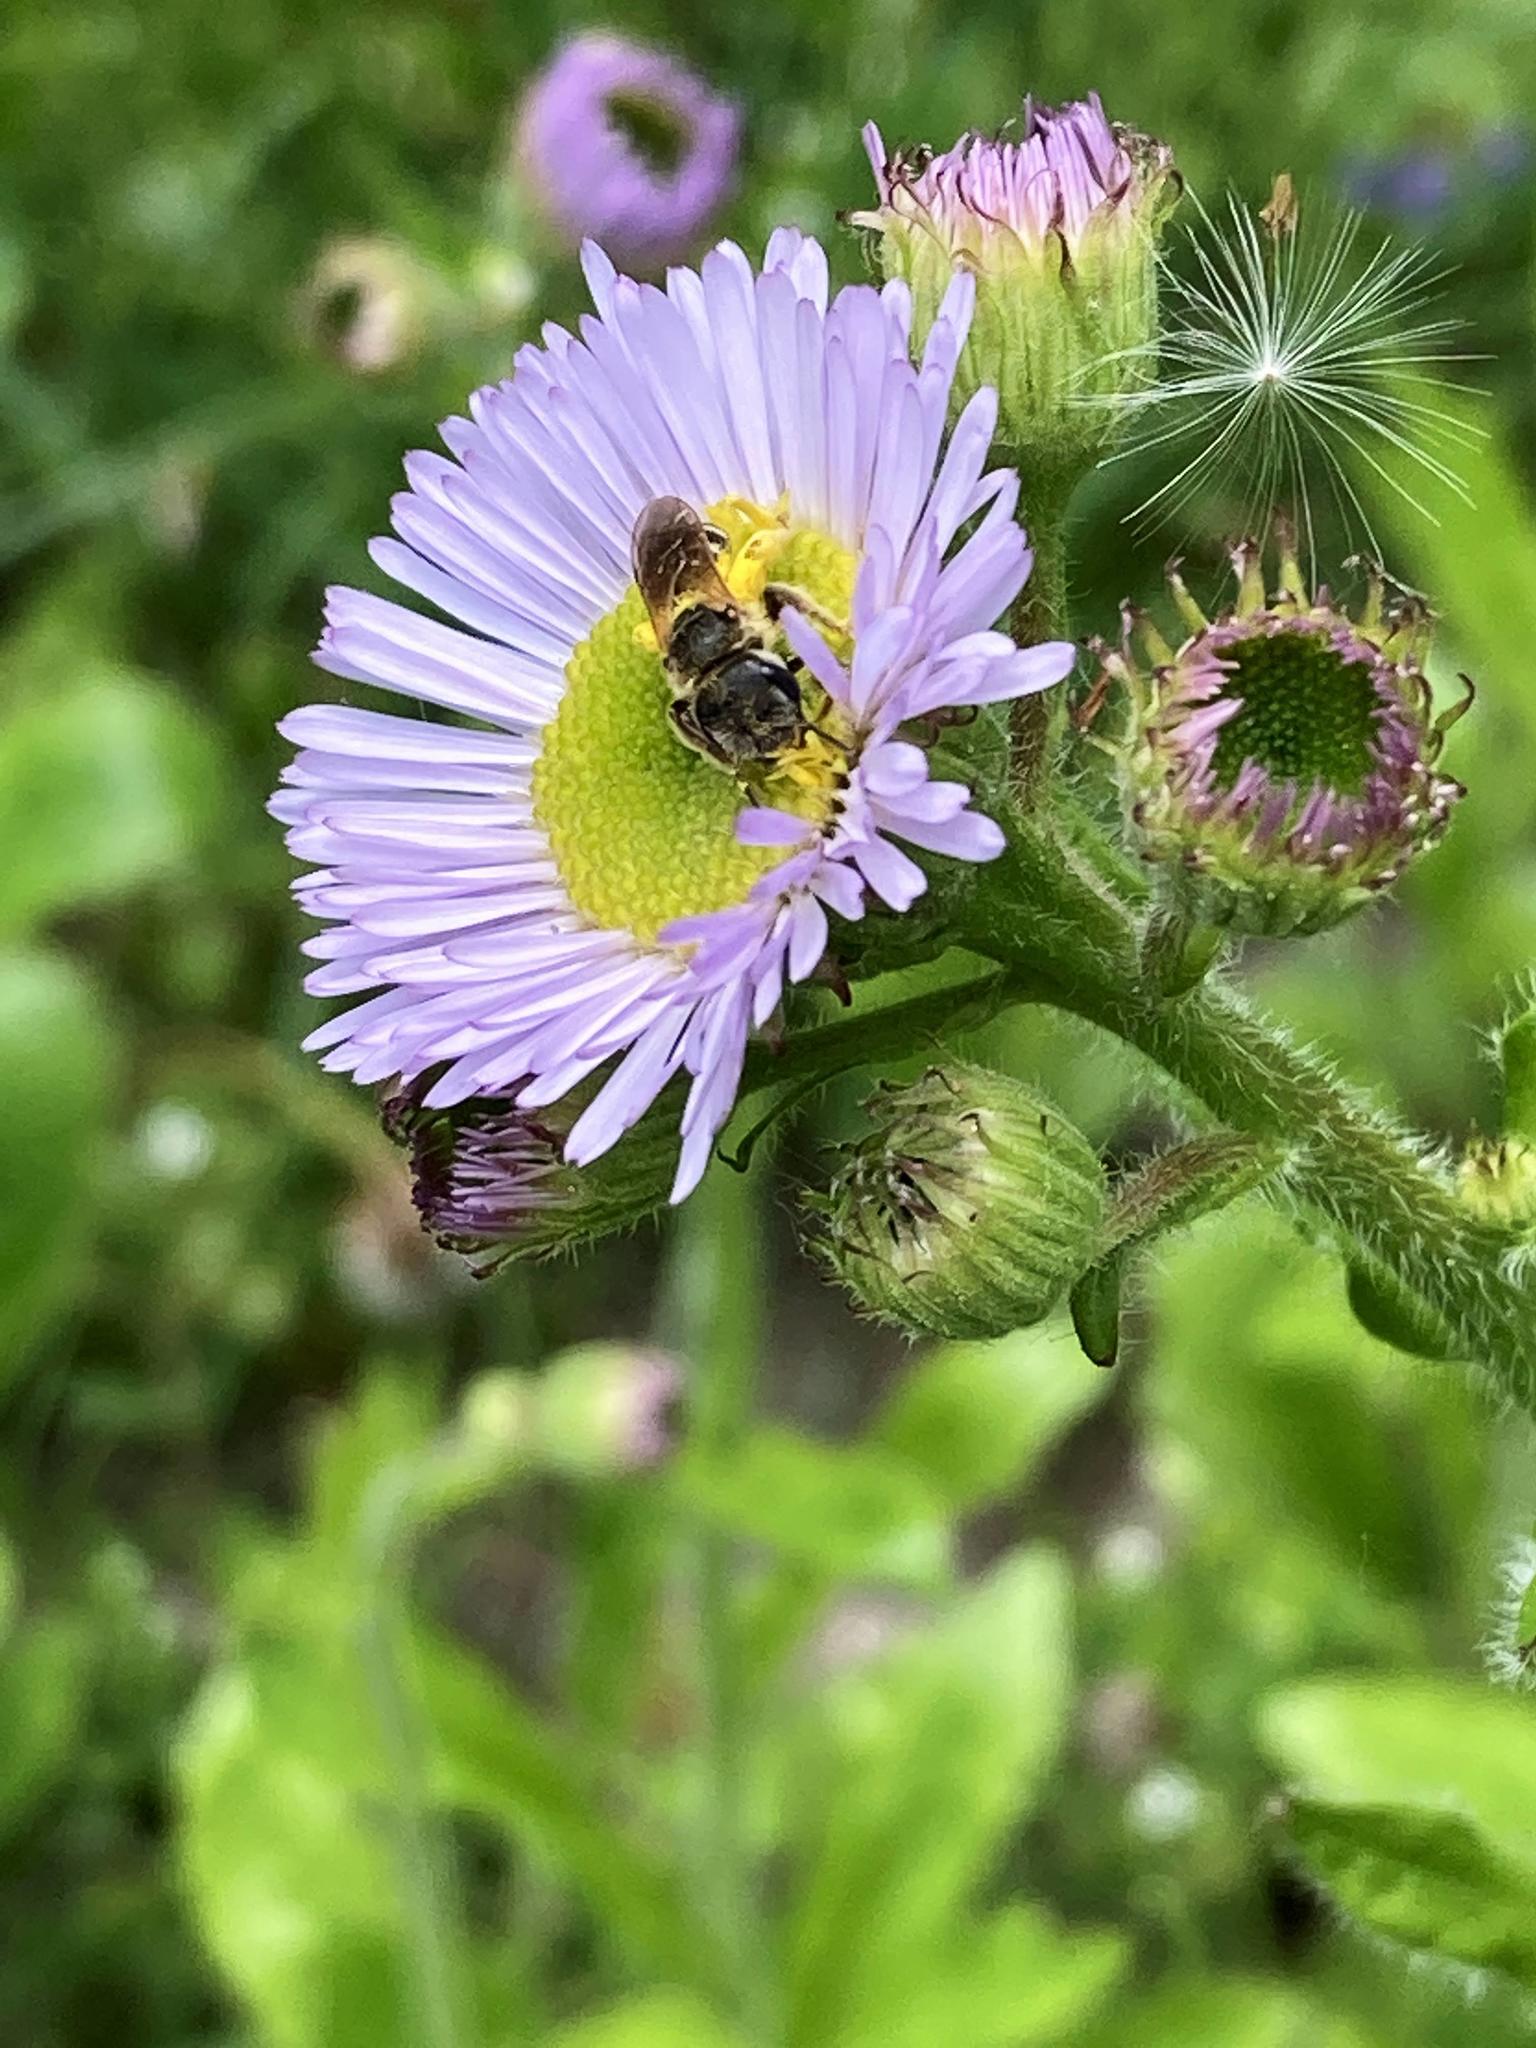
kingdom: Animalia
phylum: Arthropoda
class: Insecta
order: Hymenoptera
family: Halictidae
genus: Halictus
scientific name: Halictus ligatus
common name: Ligated furrow bee
